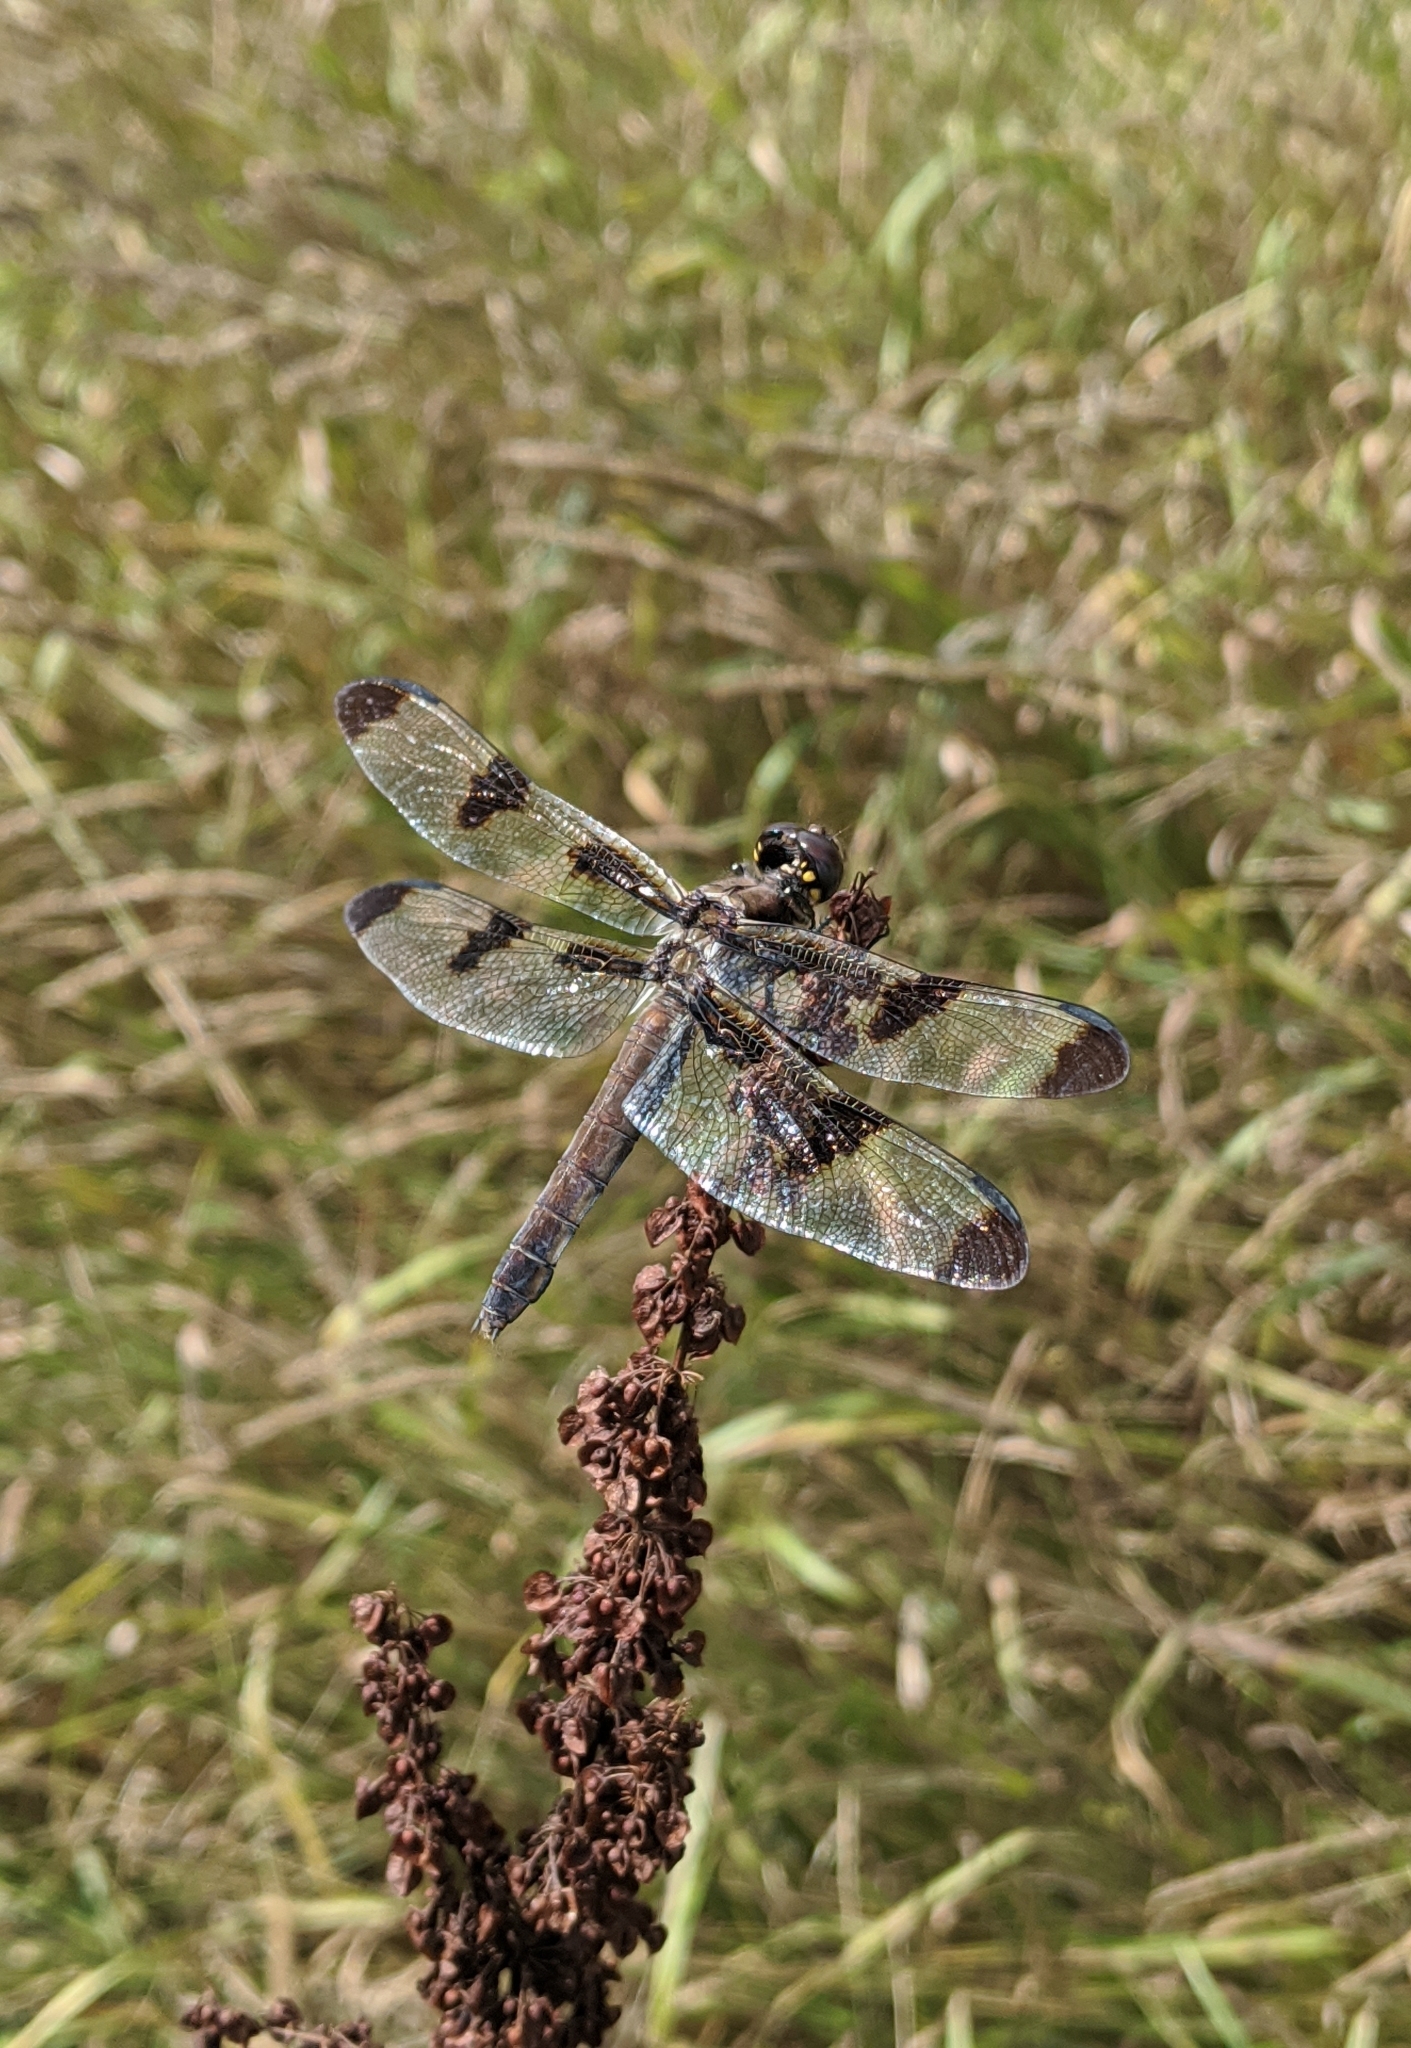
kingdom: Animalia
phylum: Arthropoda
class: Insecta
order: Odonata
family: Libellulidae
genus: Libellula
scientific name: Libellula pulchella
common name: Twelve-spotted skimmer
